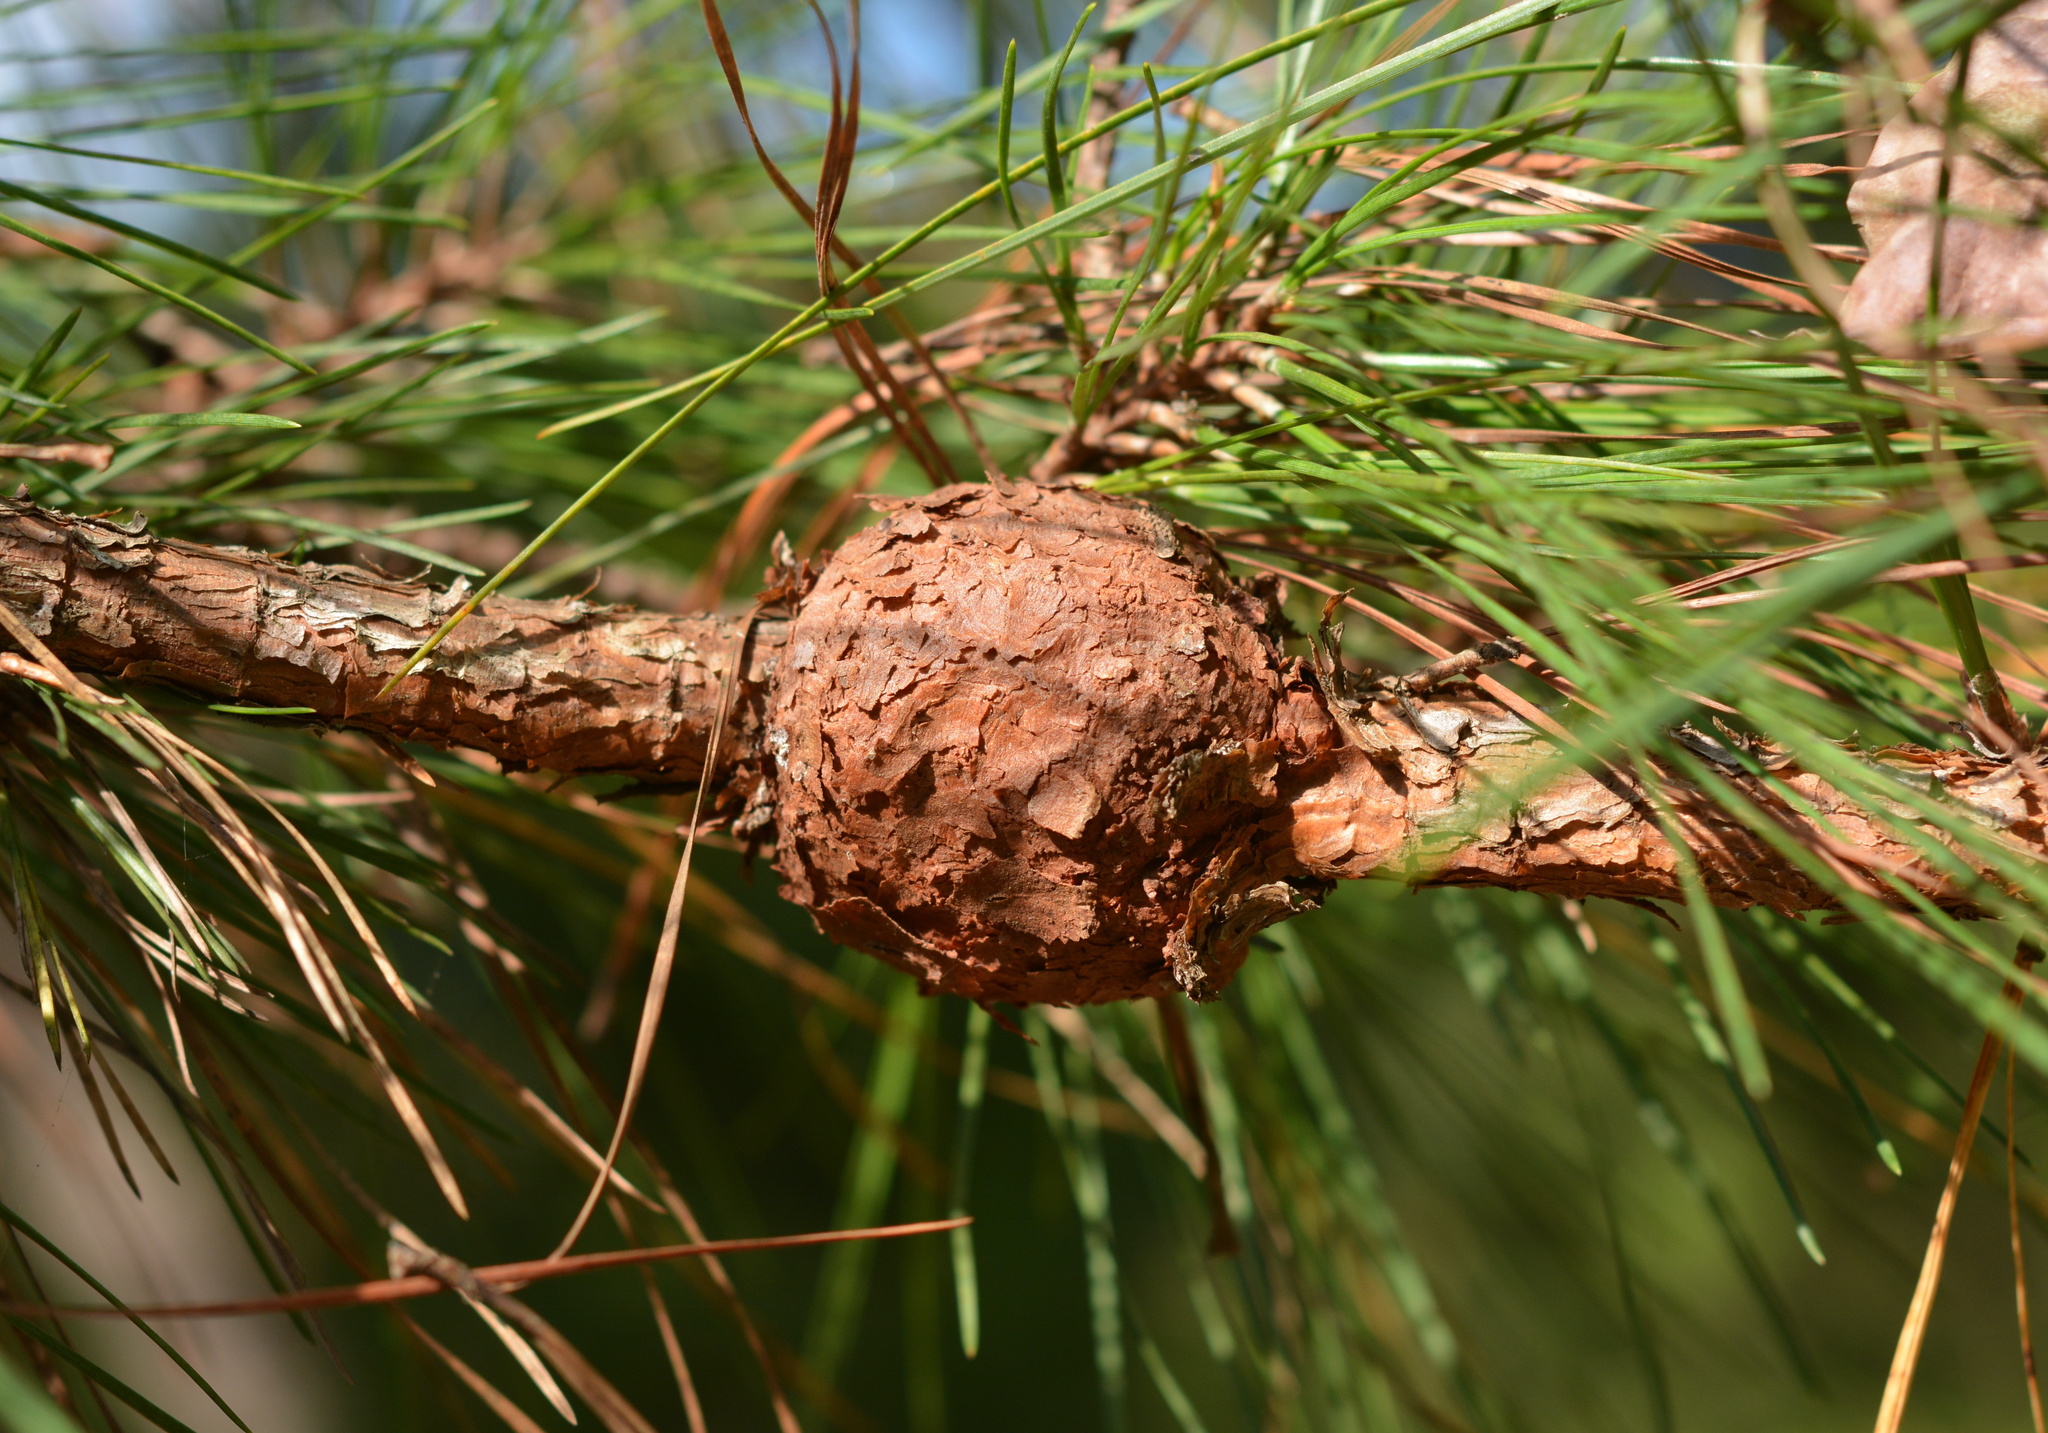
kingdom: Fungi
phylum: Basidiomycota
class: Pucciniomycetes
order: Pucciniales
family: Cronartiaceae
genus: Cronartium
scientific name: Cronartium quercuum
